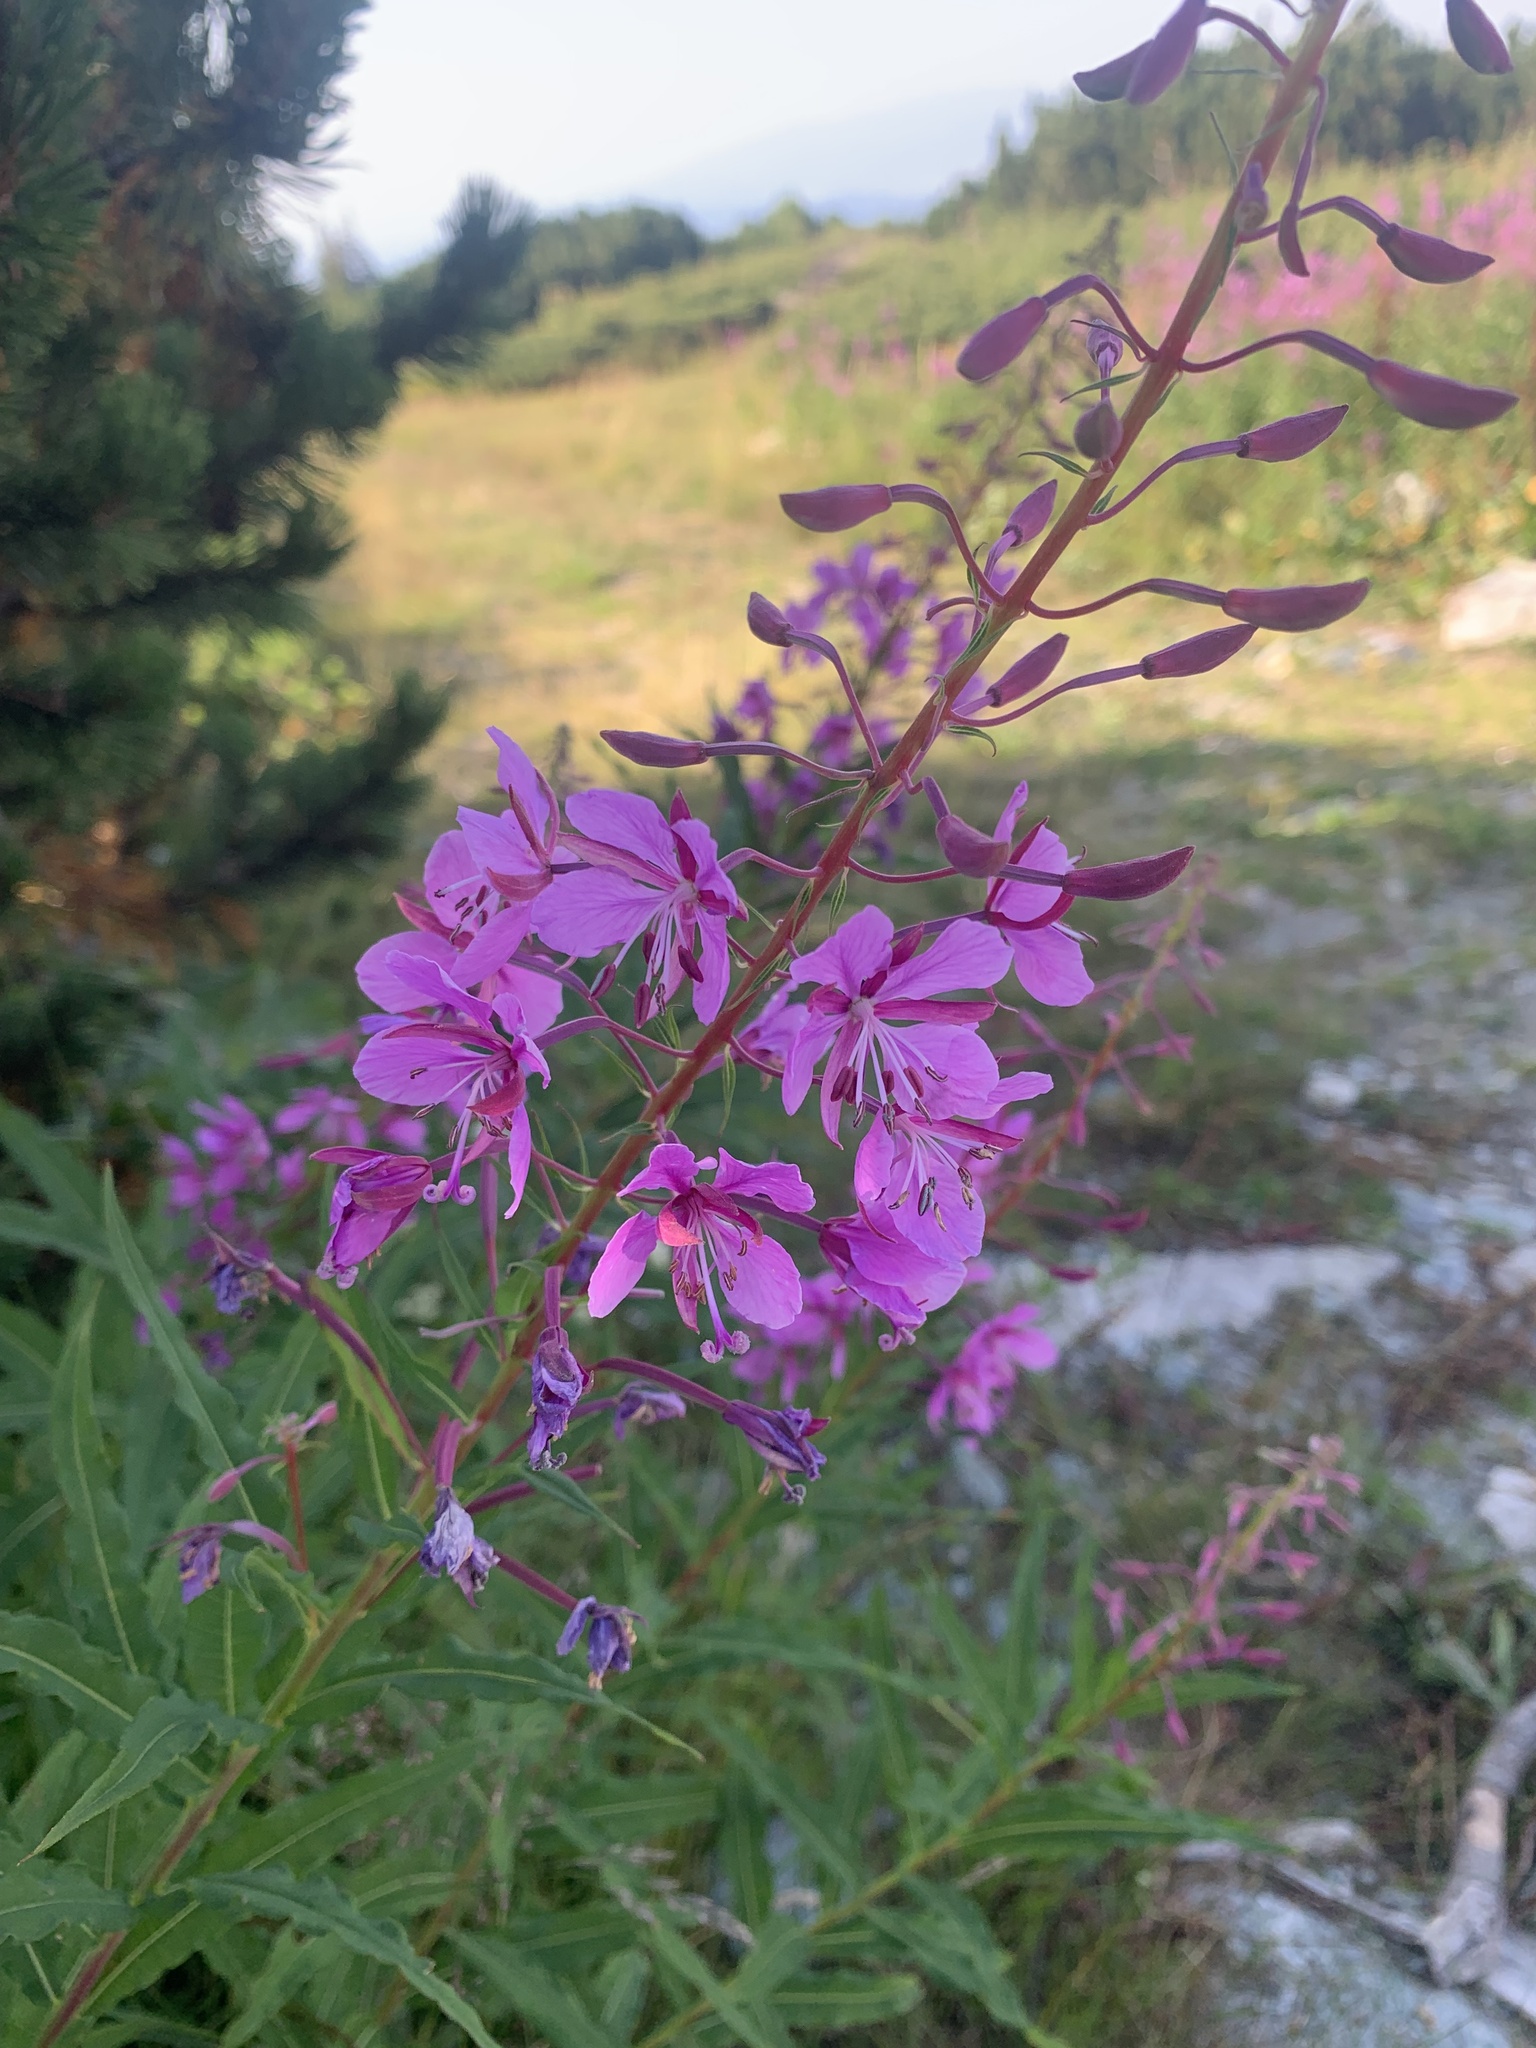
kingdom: Plantae
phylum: Tracheophyta
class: Magnoliopsida
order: Myrtales
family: Onagraceae
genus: Chamaenerion
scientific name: Chamaenerion angustifolium
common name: Fireweed
